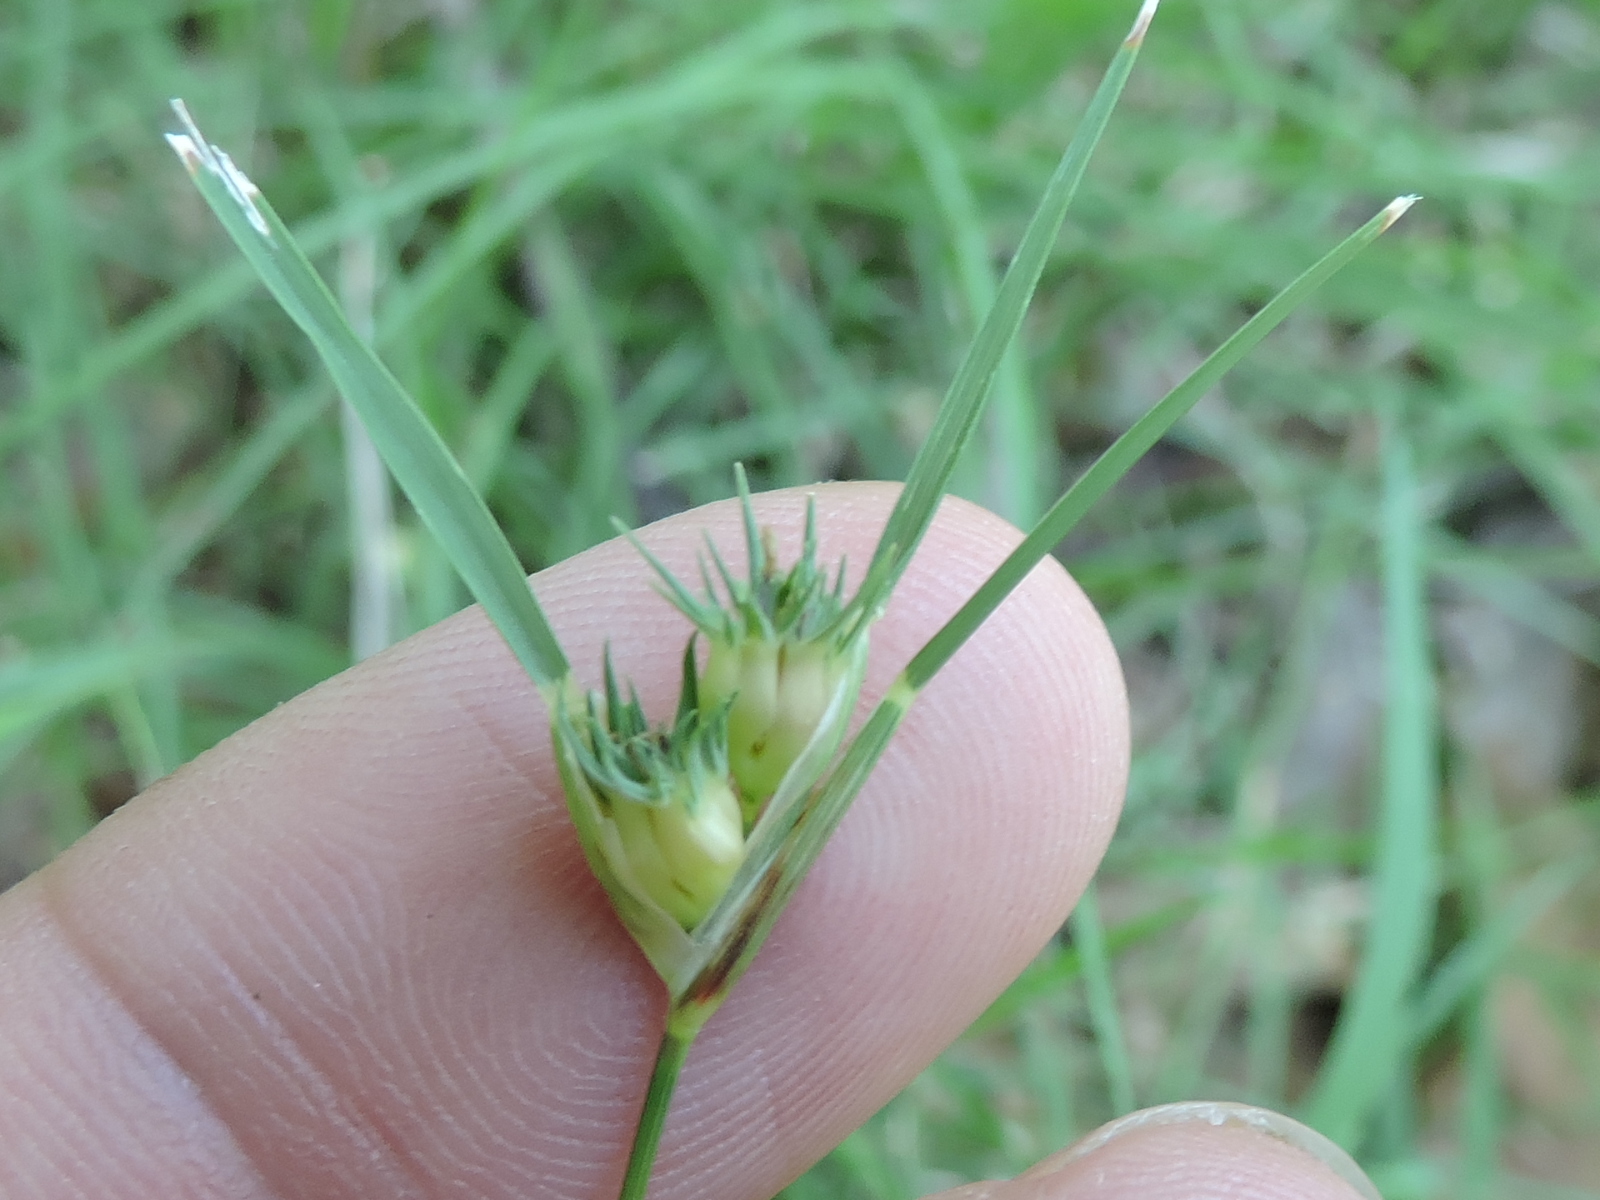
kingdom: Plantae
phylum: Tracheophyta
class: Liliopsida
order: Poales
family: Poaceae
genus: Bouteloua
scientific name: Bouteloua dactyloides
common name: Buffalo grass
